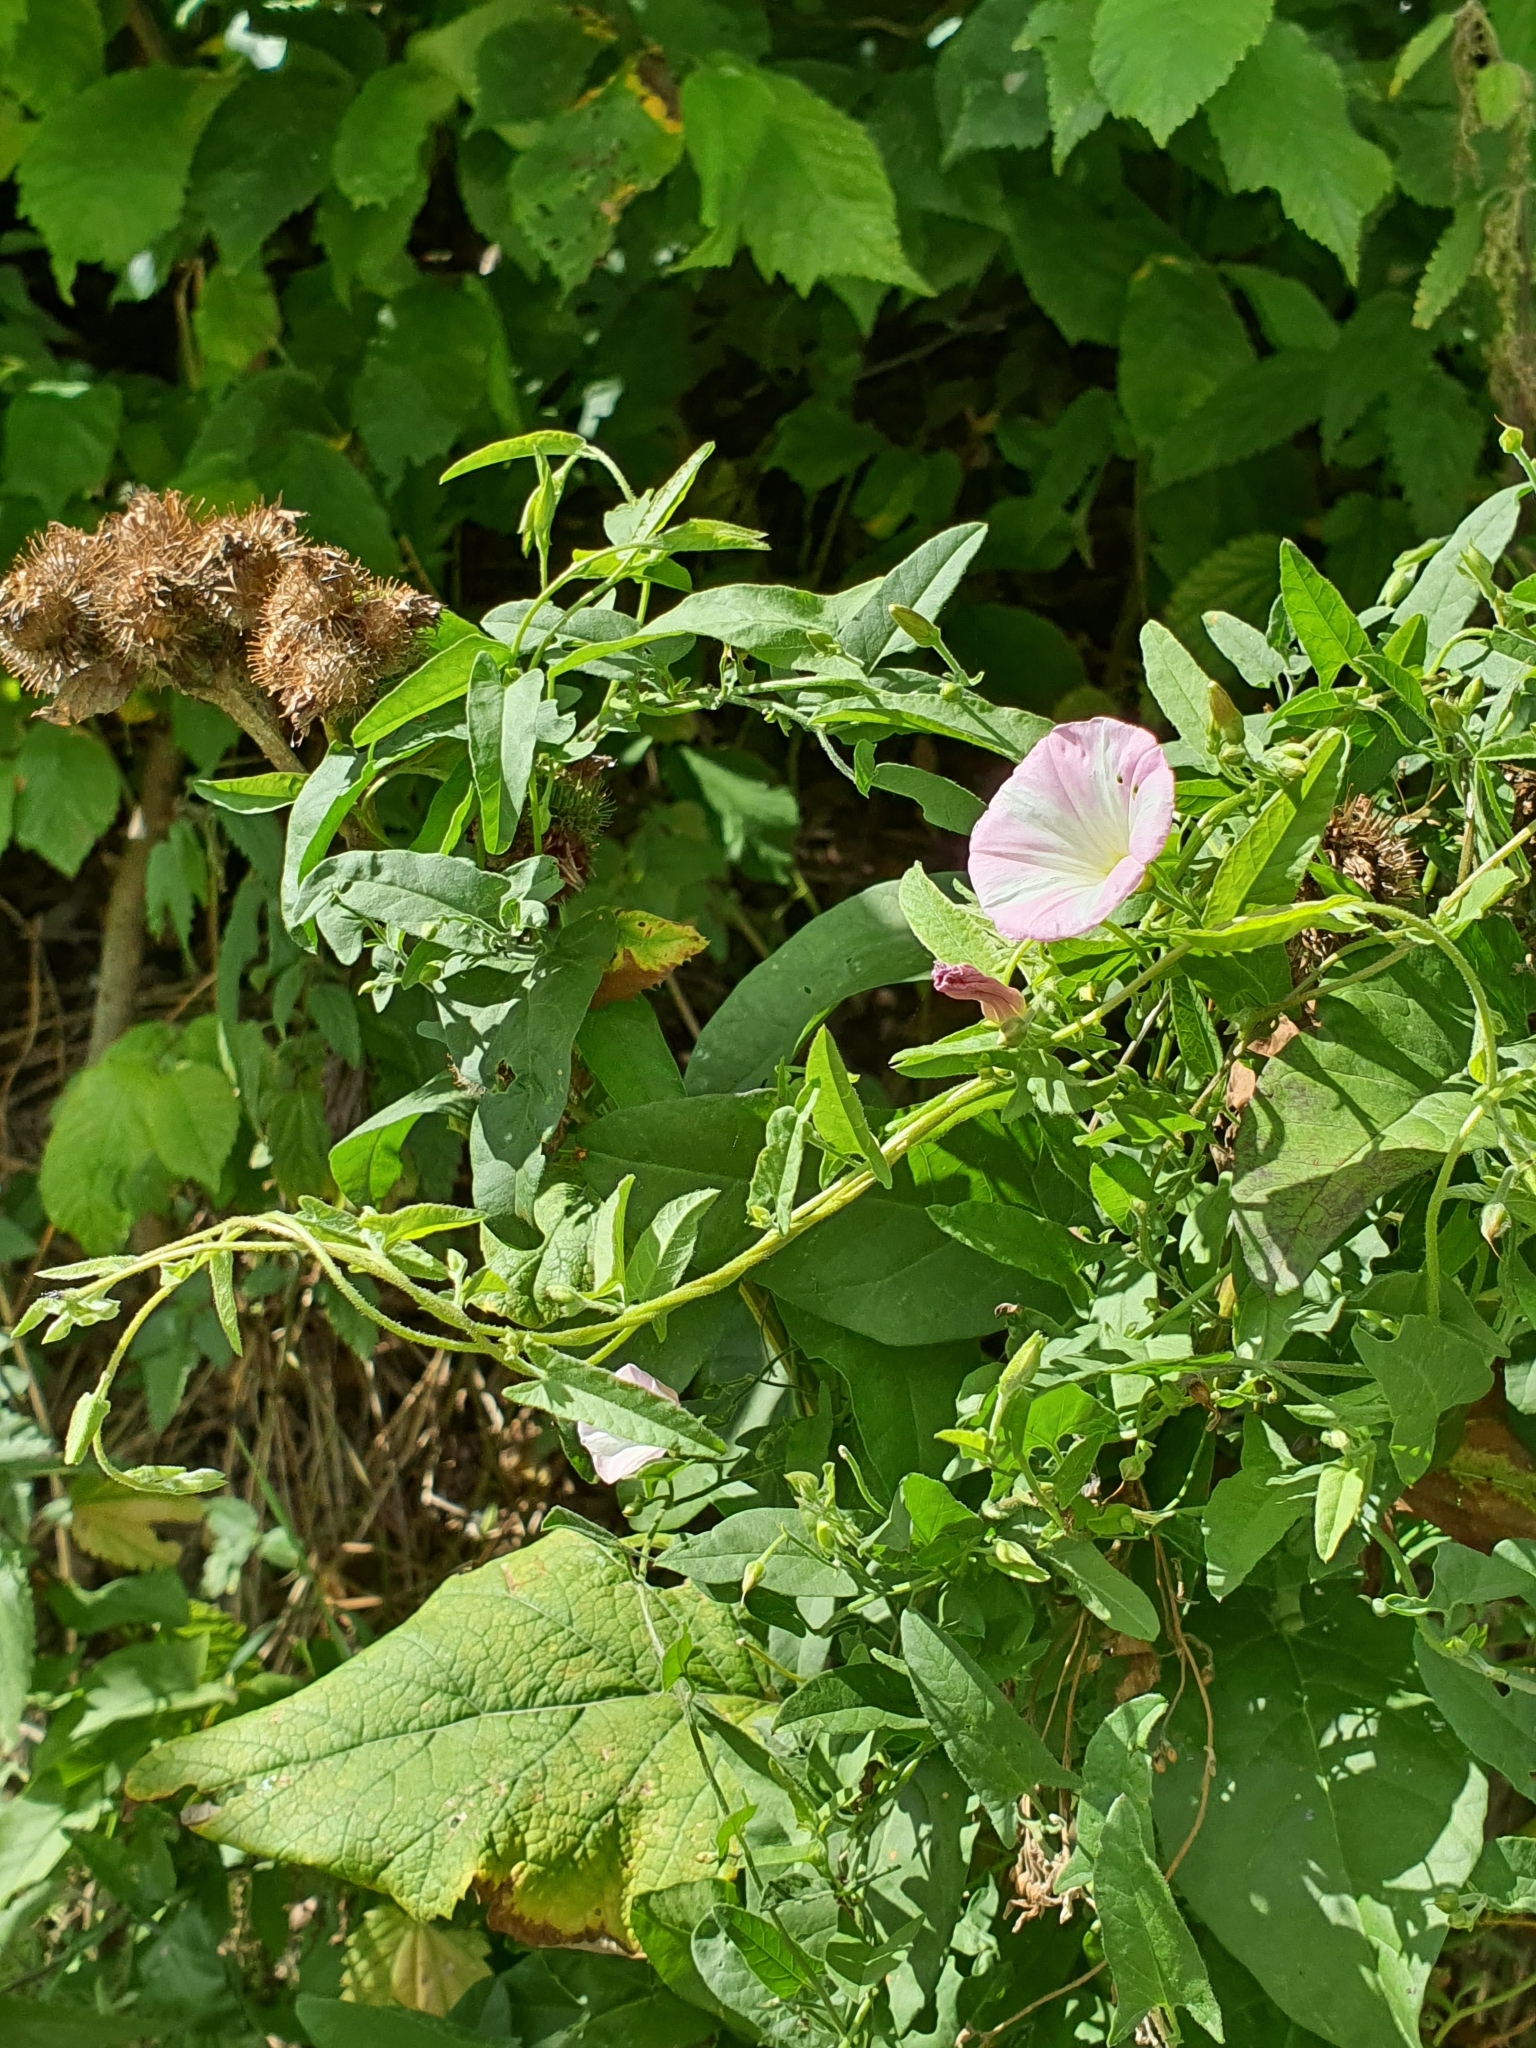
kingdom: Plantae
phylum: Tracheophyta
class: Magnoliopsida
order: Solanales
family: Convolvulaceae
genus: Convolvulus
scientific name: Convolvulus arvensis
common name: Field bindweed
